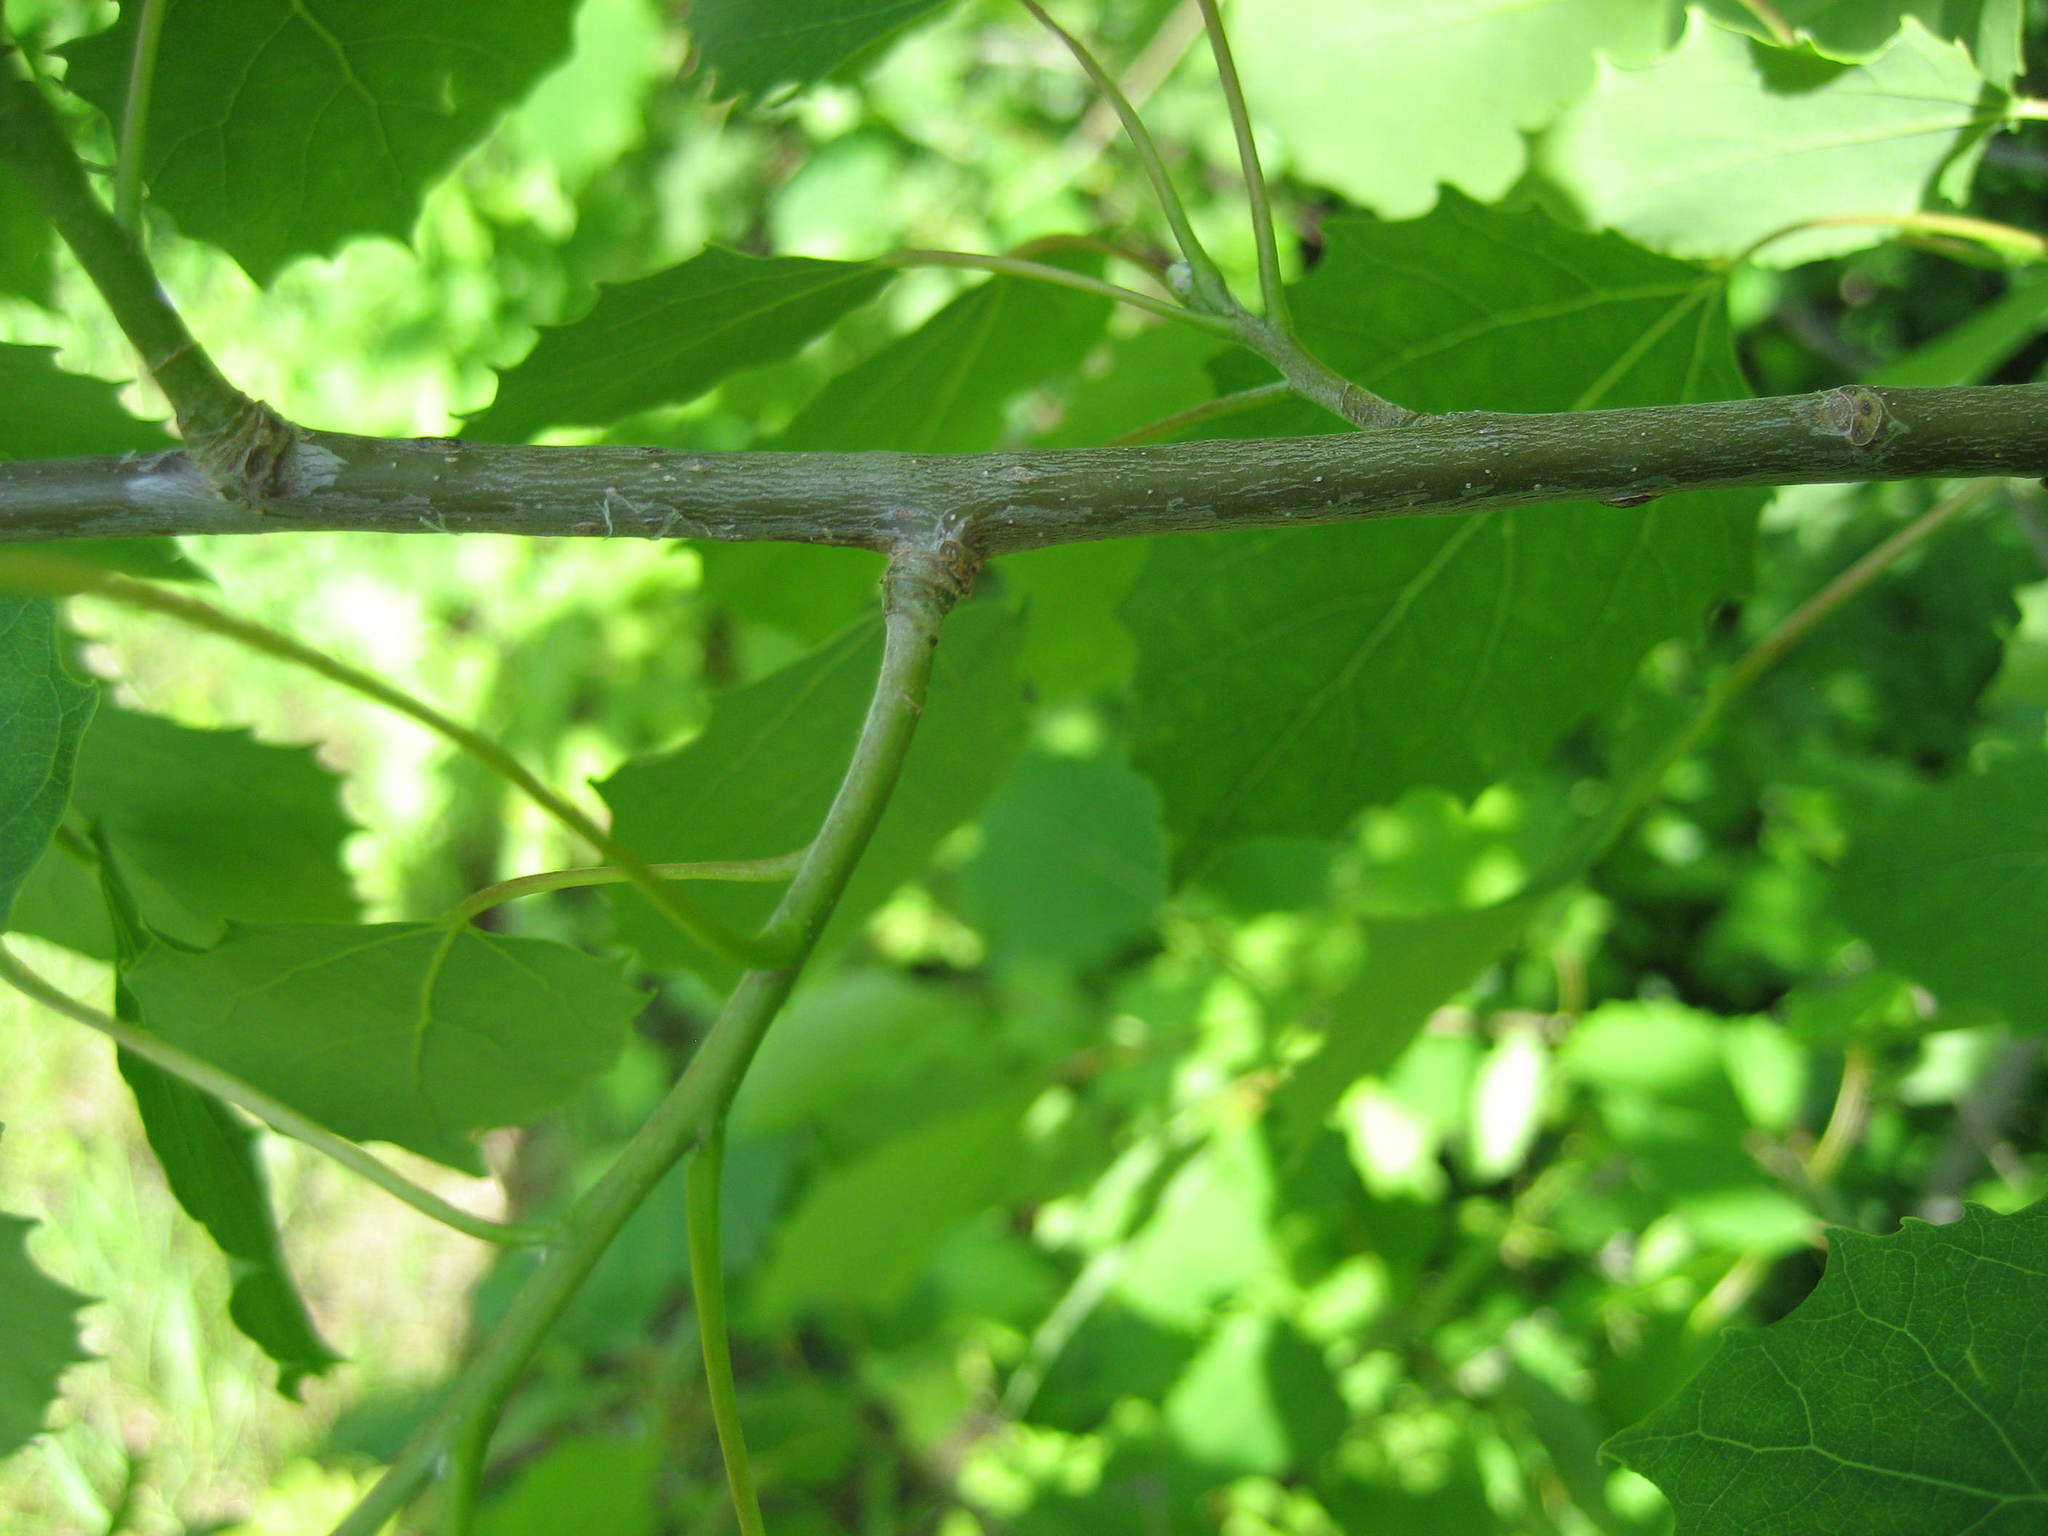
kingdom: Plantae
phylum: Tracheophyta
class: Magnoliopsida
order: Malpighiales
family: Salicaceae
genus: Populus
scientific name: Populus grandidentata
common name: Bigtooth aspen
